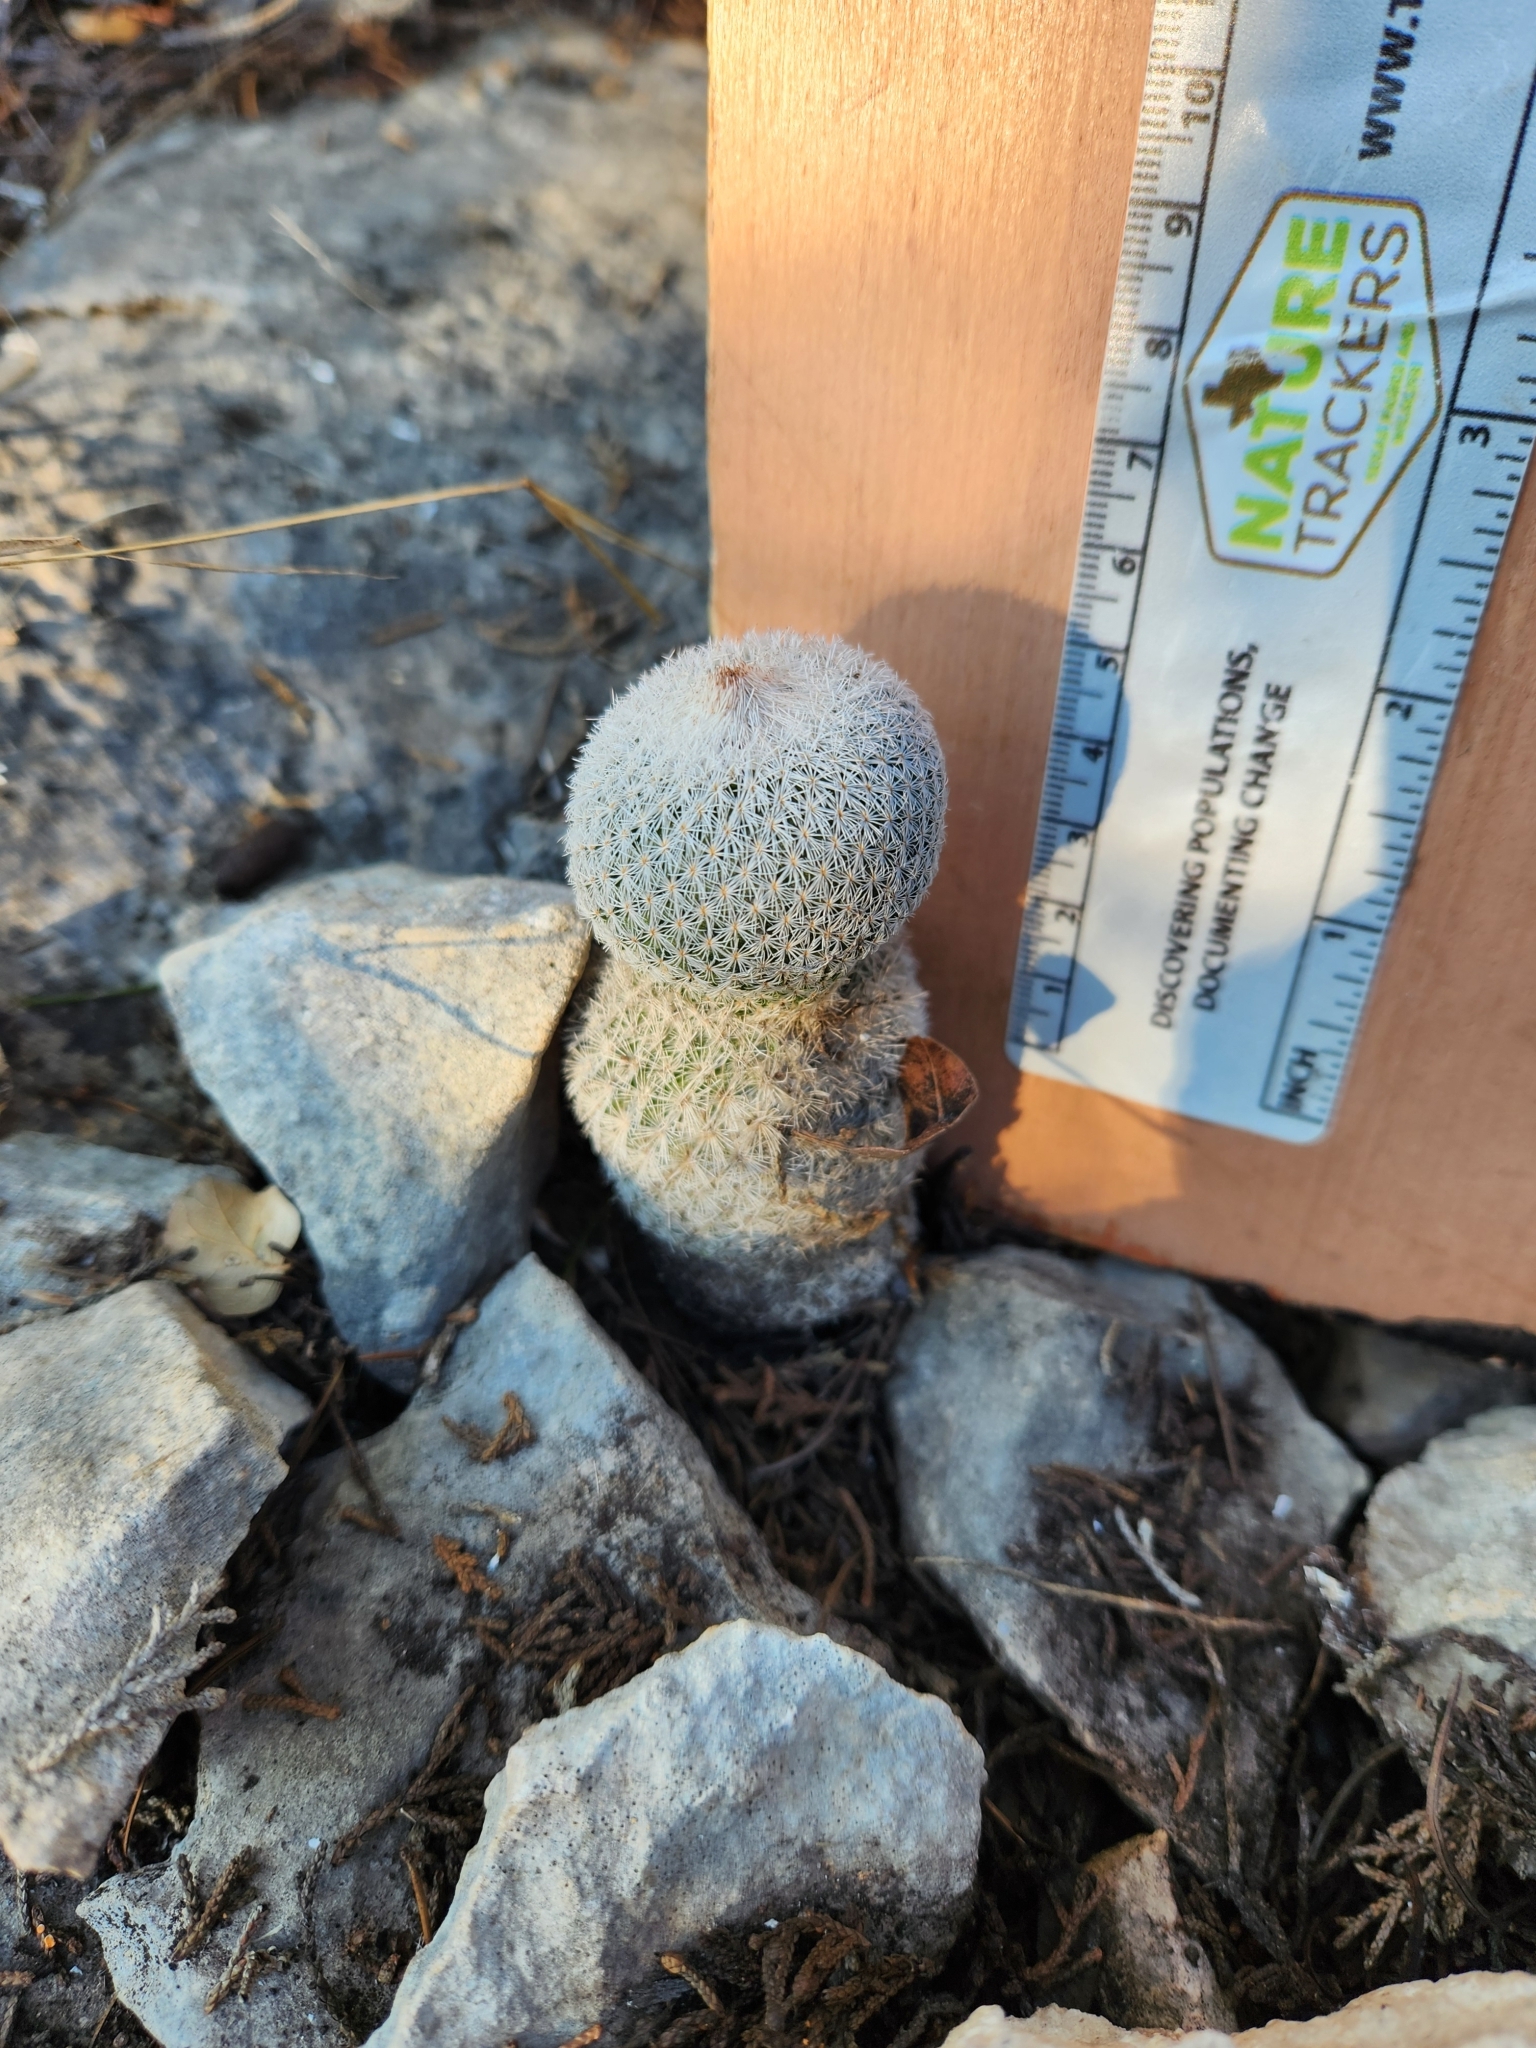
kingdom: Plantae
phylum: Tracheophyta
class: Magnoliopsida
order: Caryophyllales
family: Cactaceae
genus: Epithelantha
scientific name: Epithelantha micromeris
